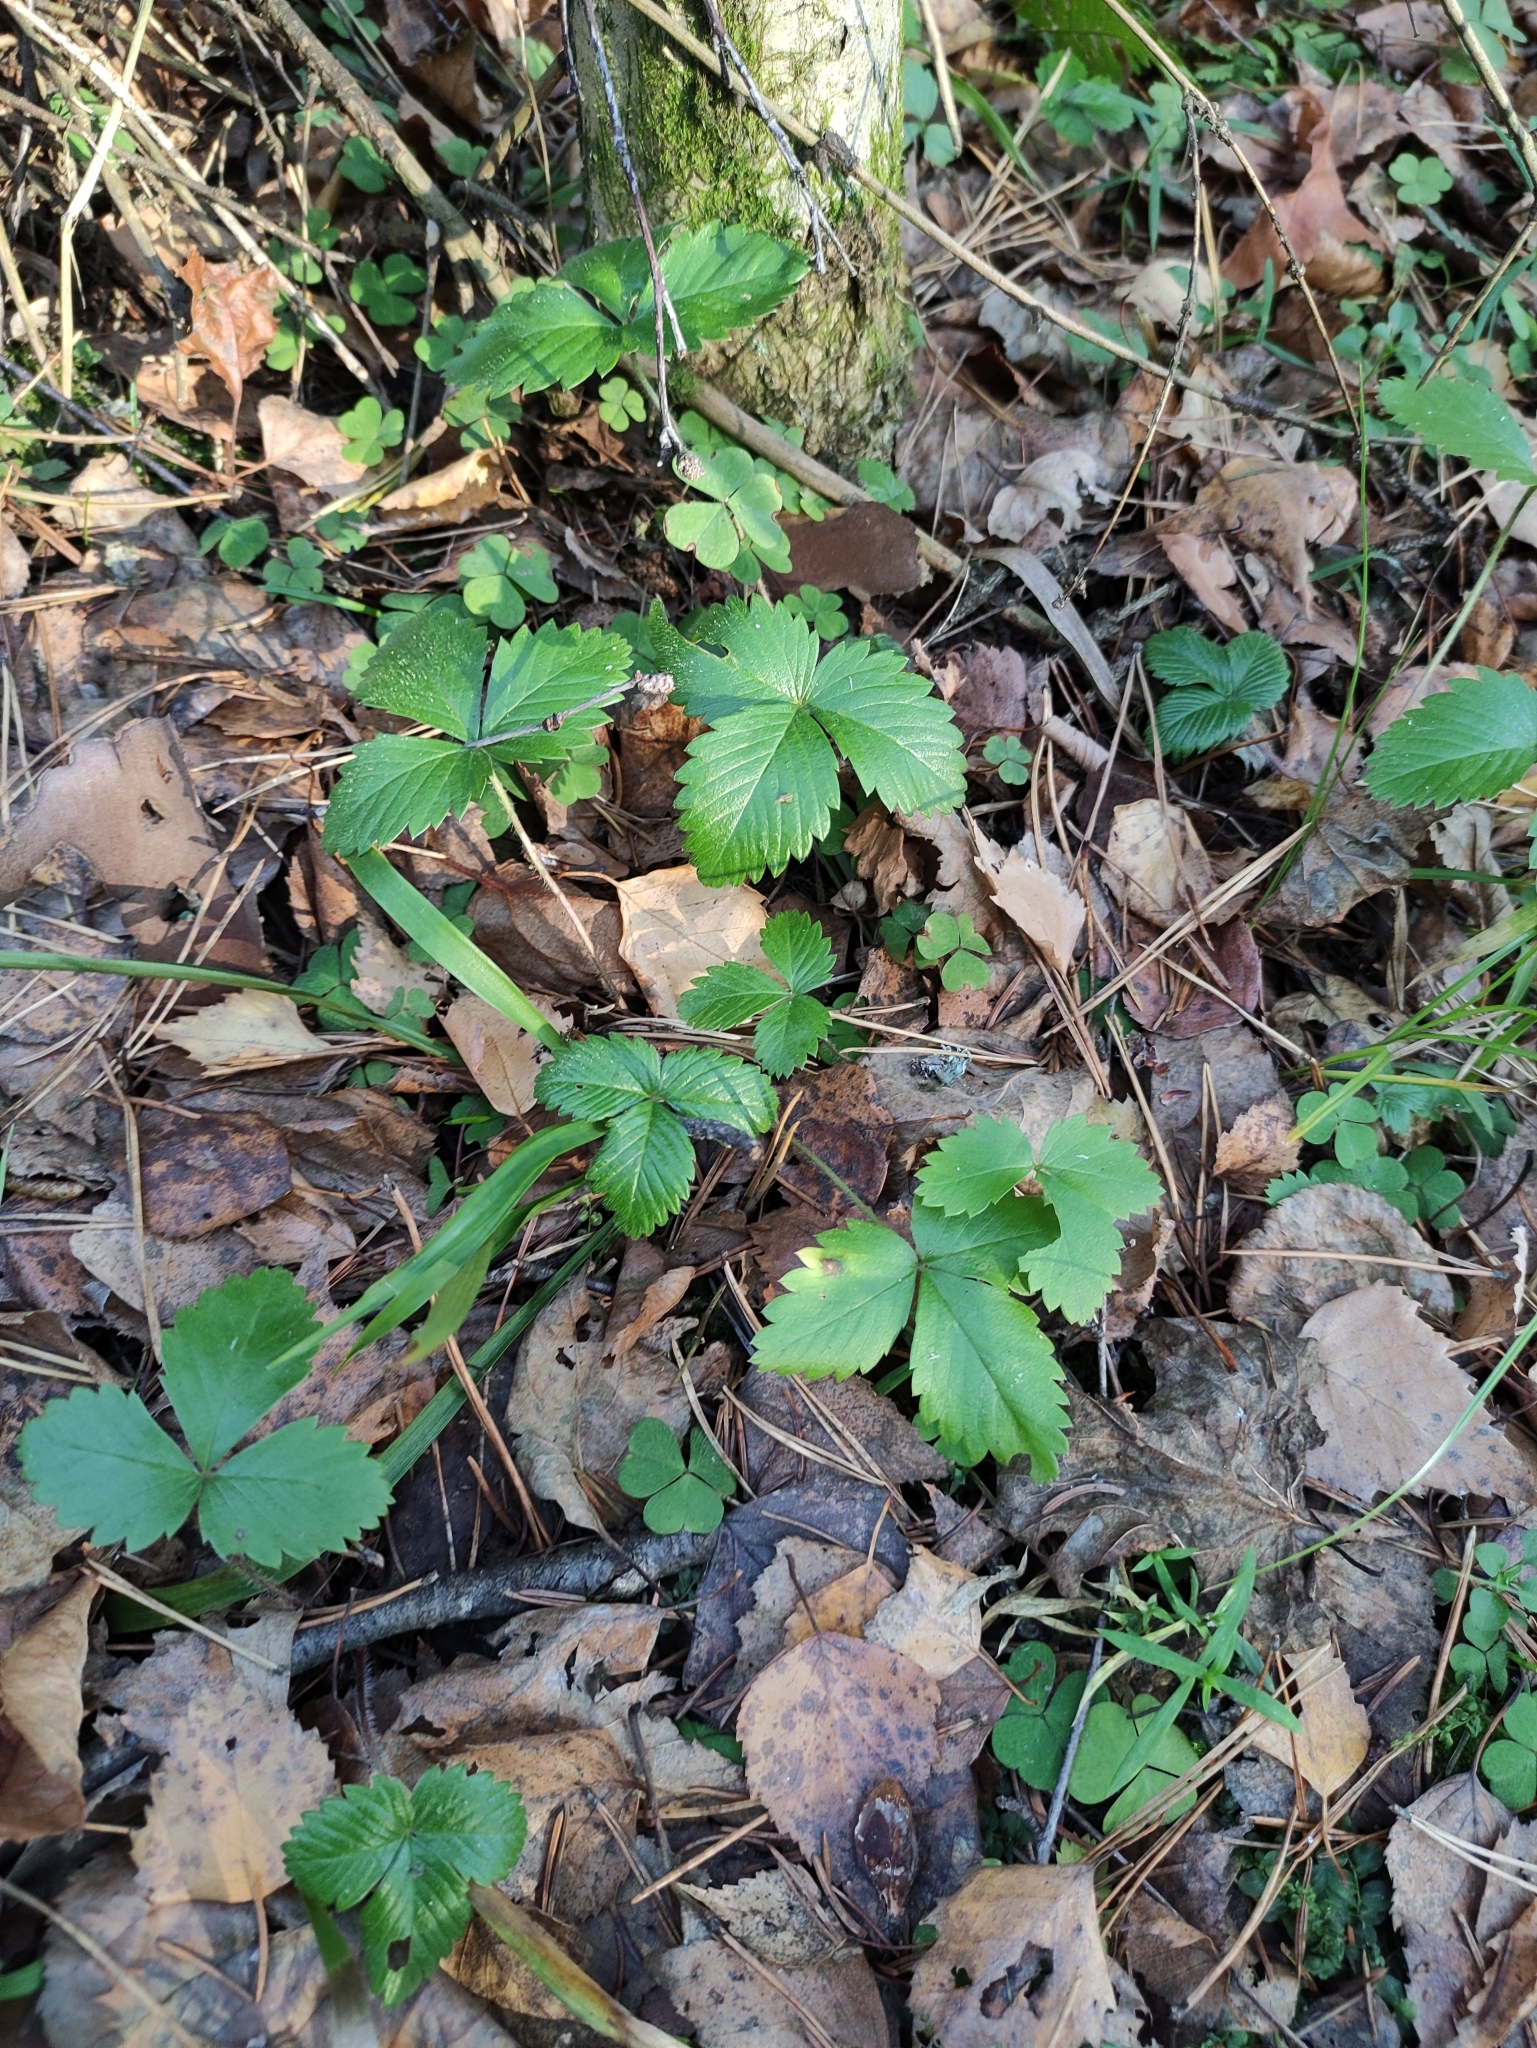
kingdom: Plantae
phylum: Tracheophyta
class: Magnoliopsida
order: Rosales
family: Rosaceae
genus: Fragaria
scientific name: Fragaria vesca
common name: Wild strawberry
